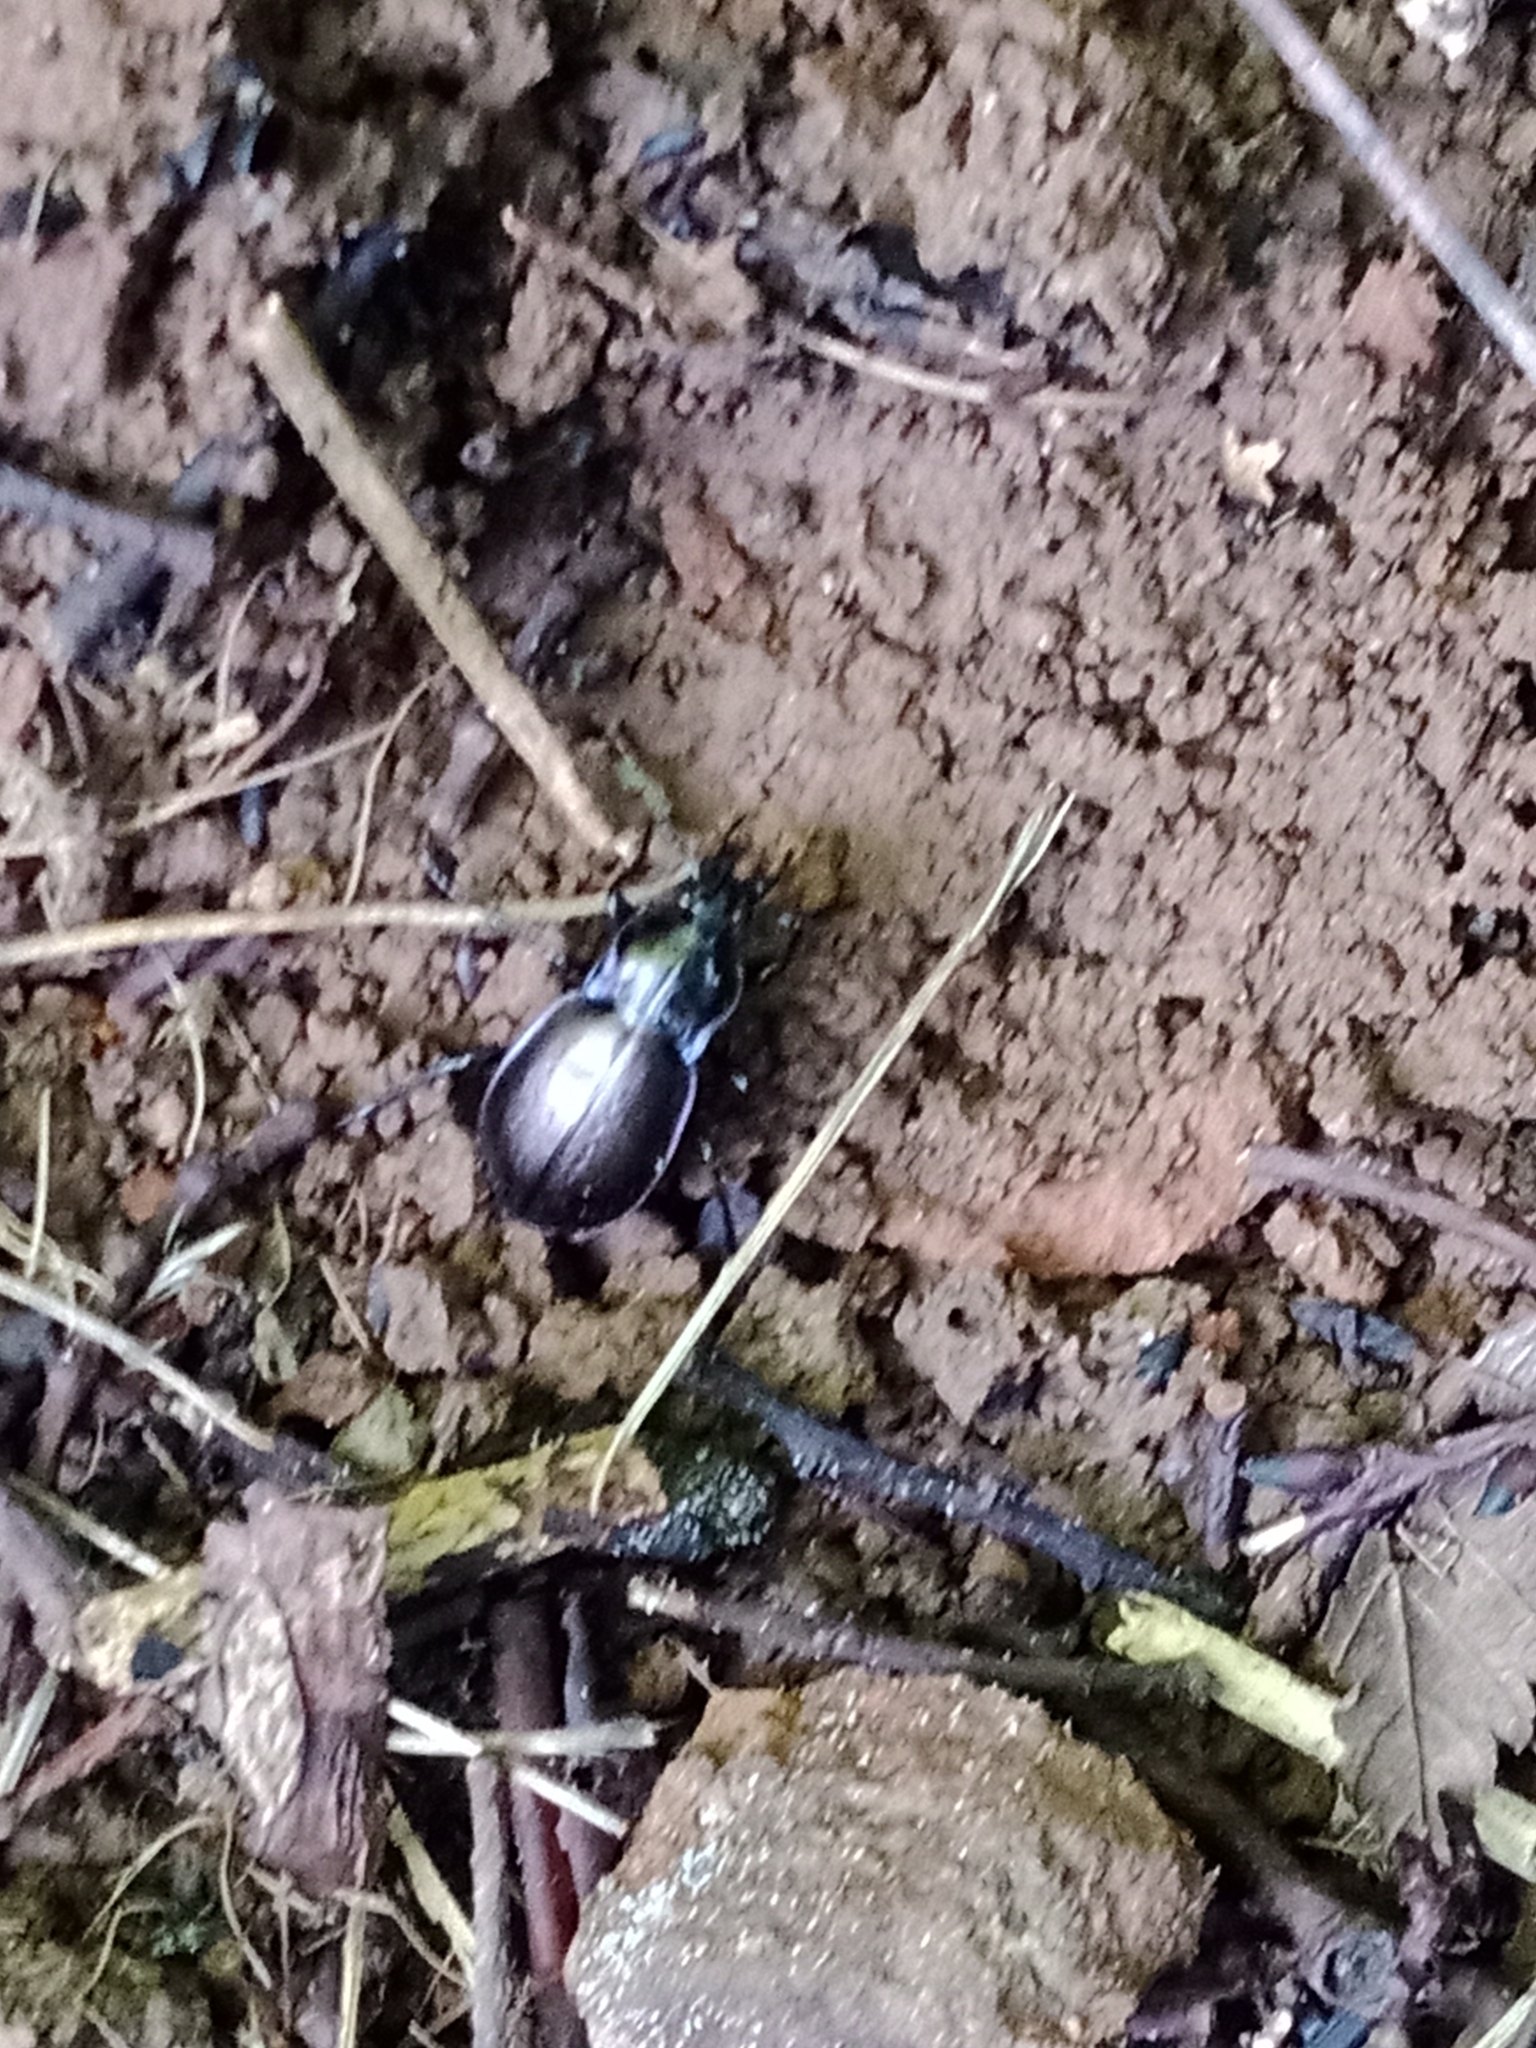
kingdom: Animalia
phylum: Arthropoda
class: Insecta
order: Coleoptera
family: Carabidae
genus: Carabus
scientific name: Carabus nemoralis
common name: European ground beetle
